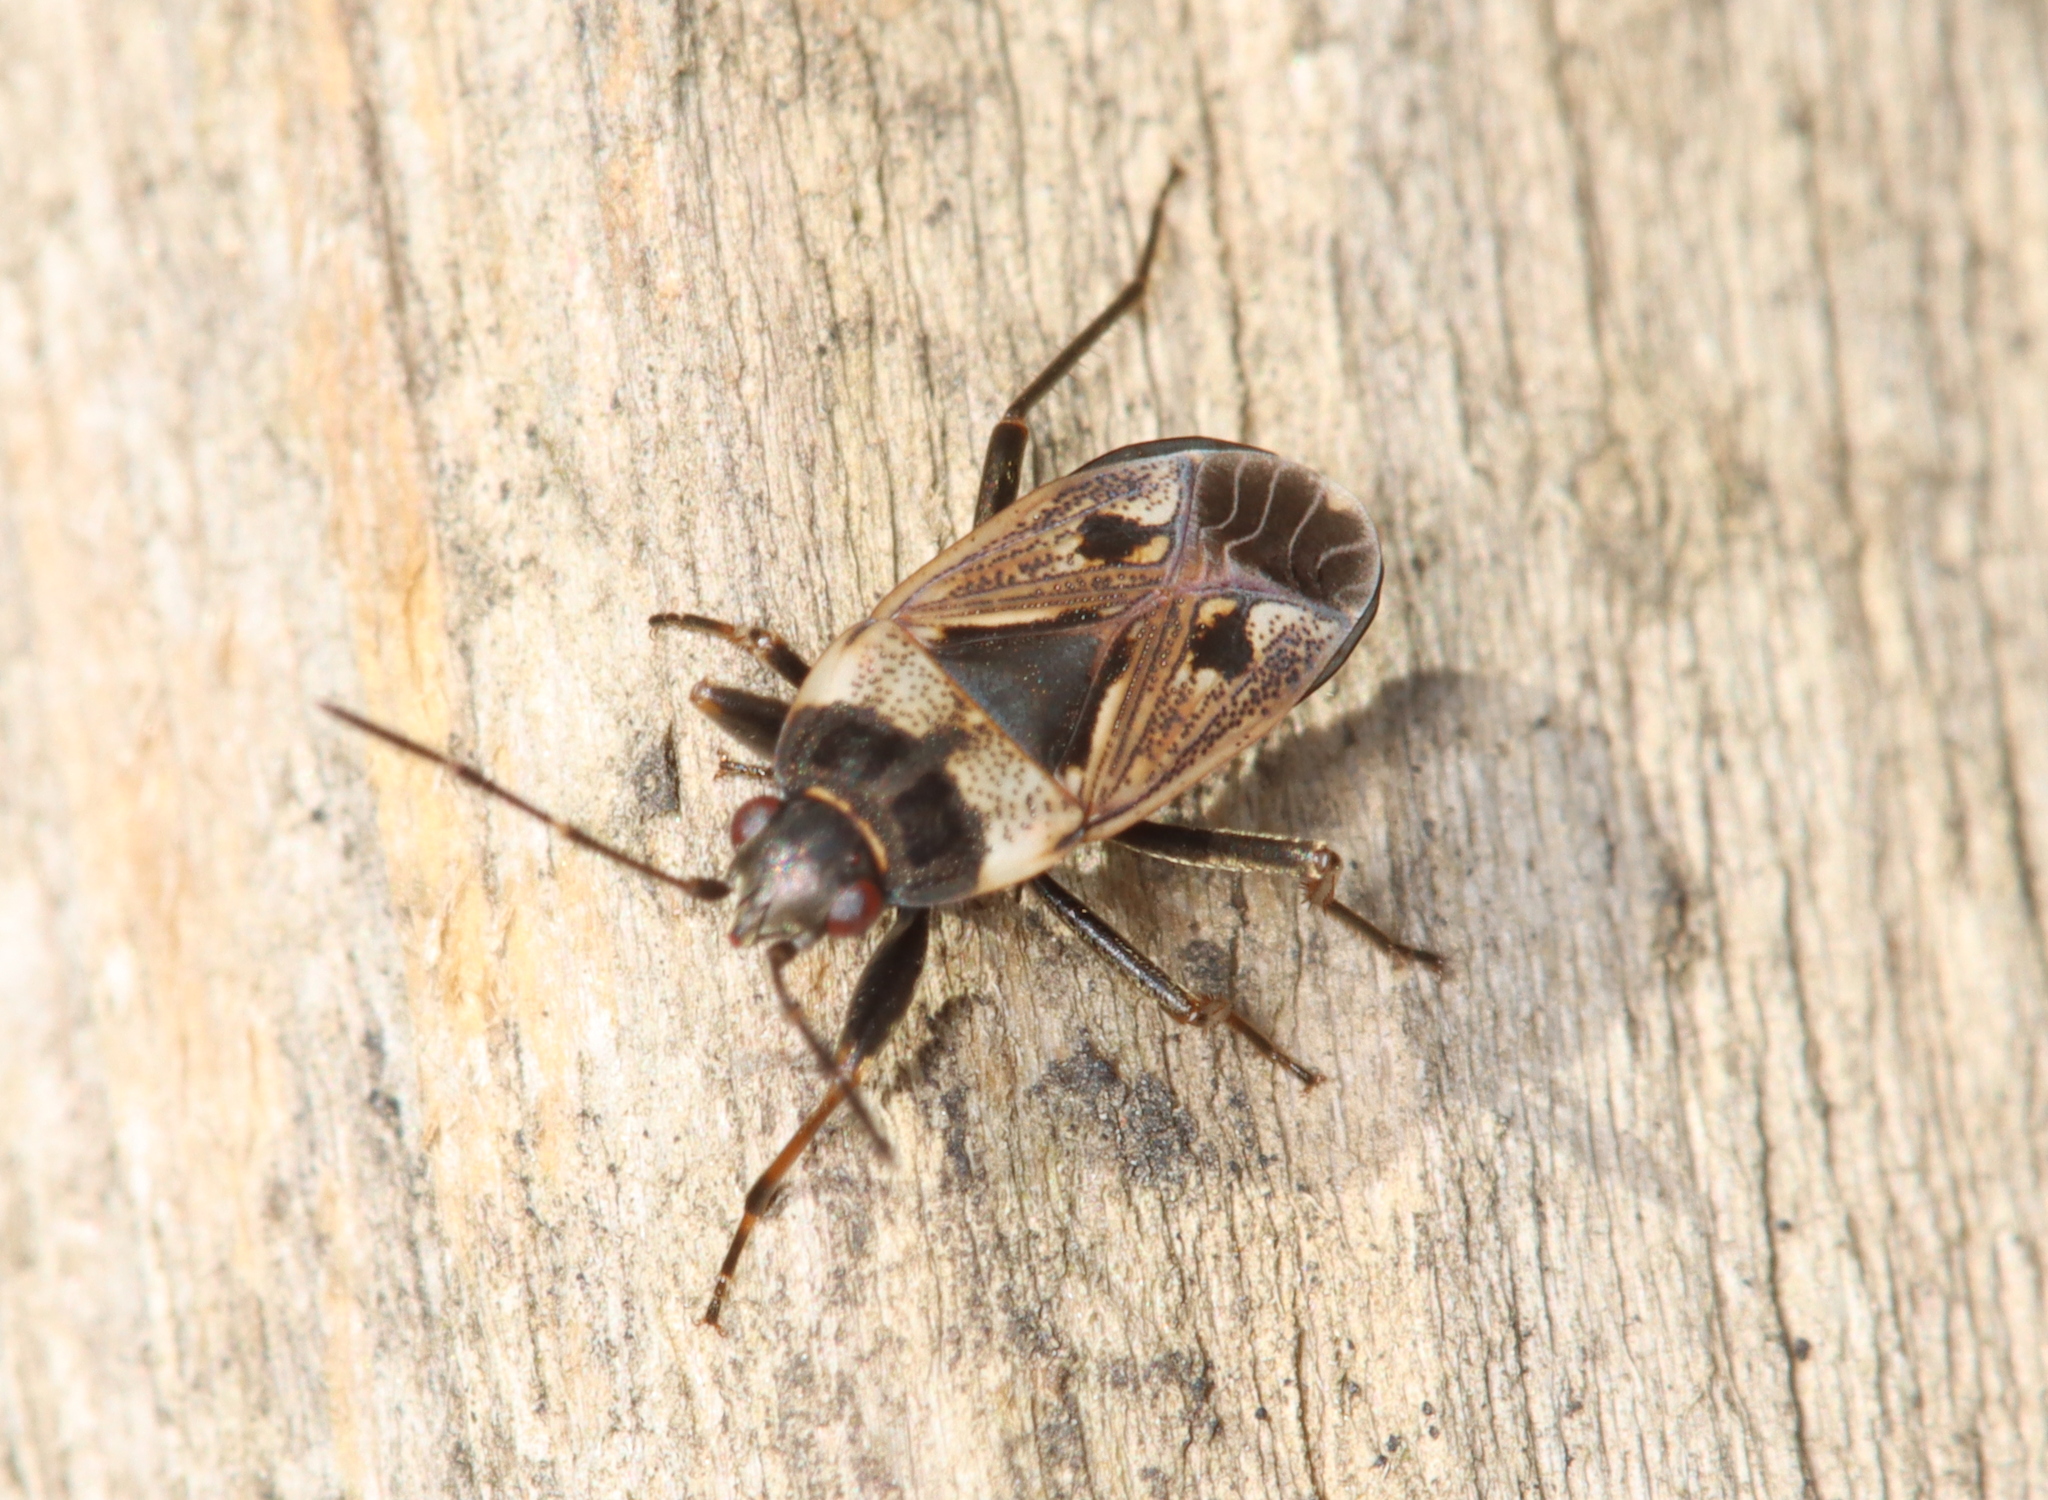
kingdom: Animalia
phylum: Arthropoda
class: Insecta
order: Hemiptera
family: Rhyparochromidae
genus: Rhyparochromus
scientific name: Rhyparochromus vulgaris
